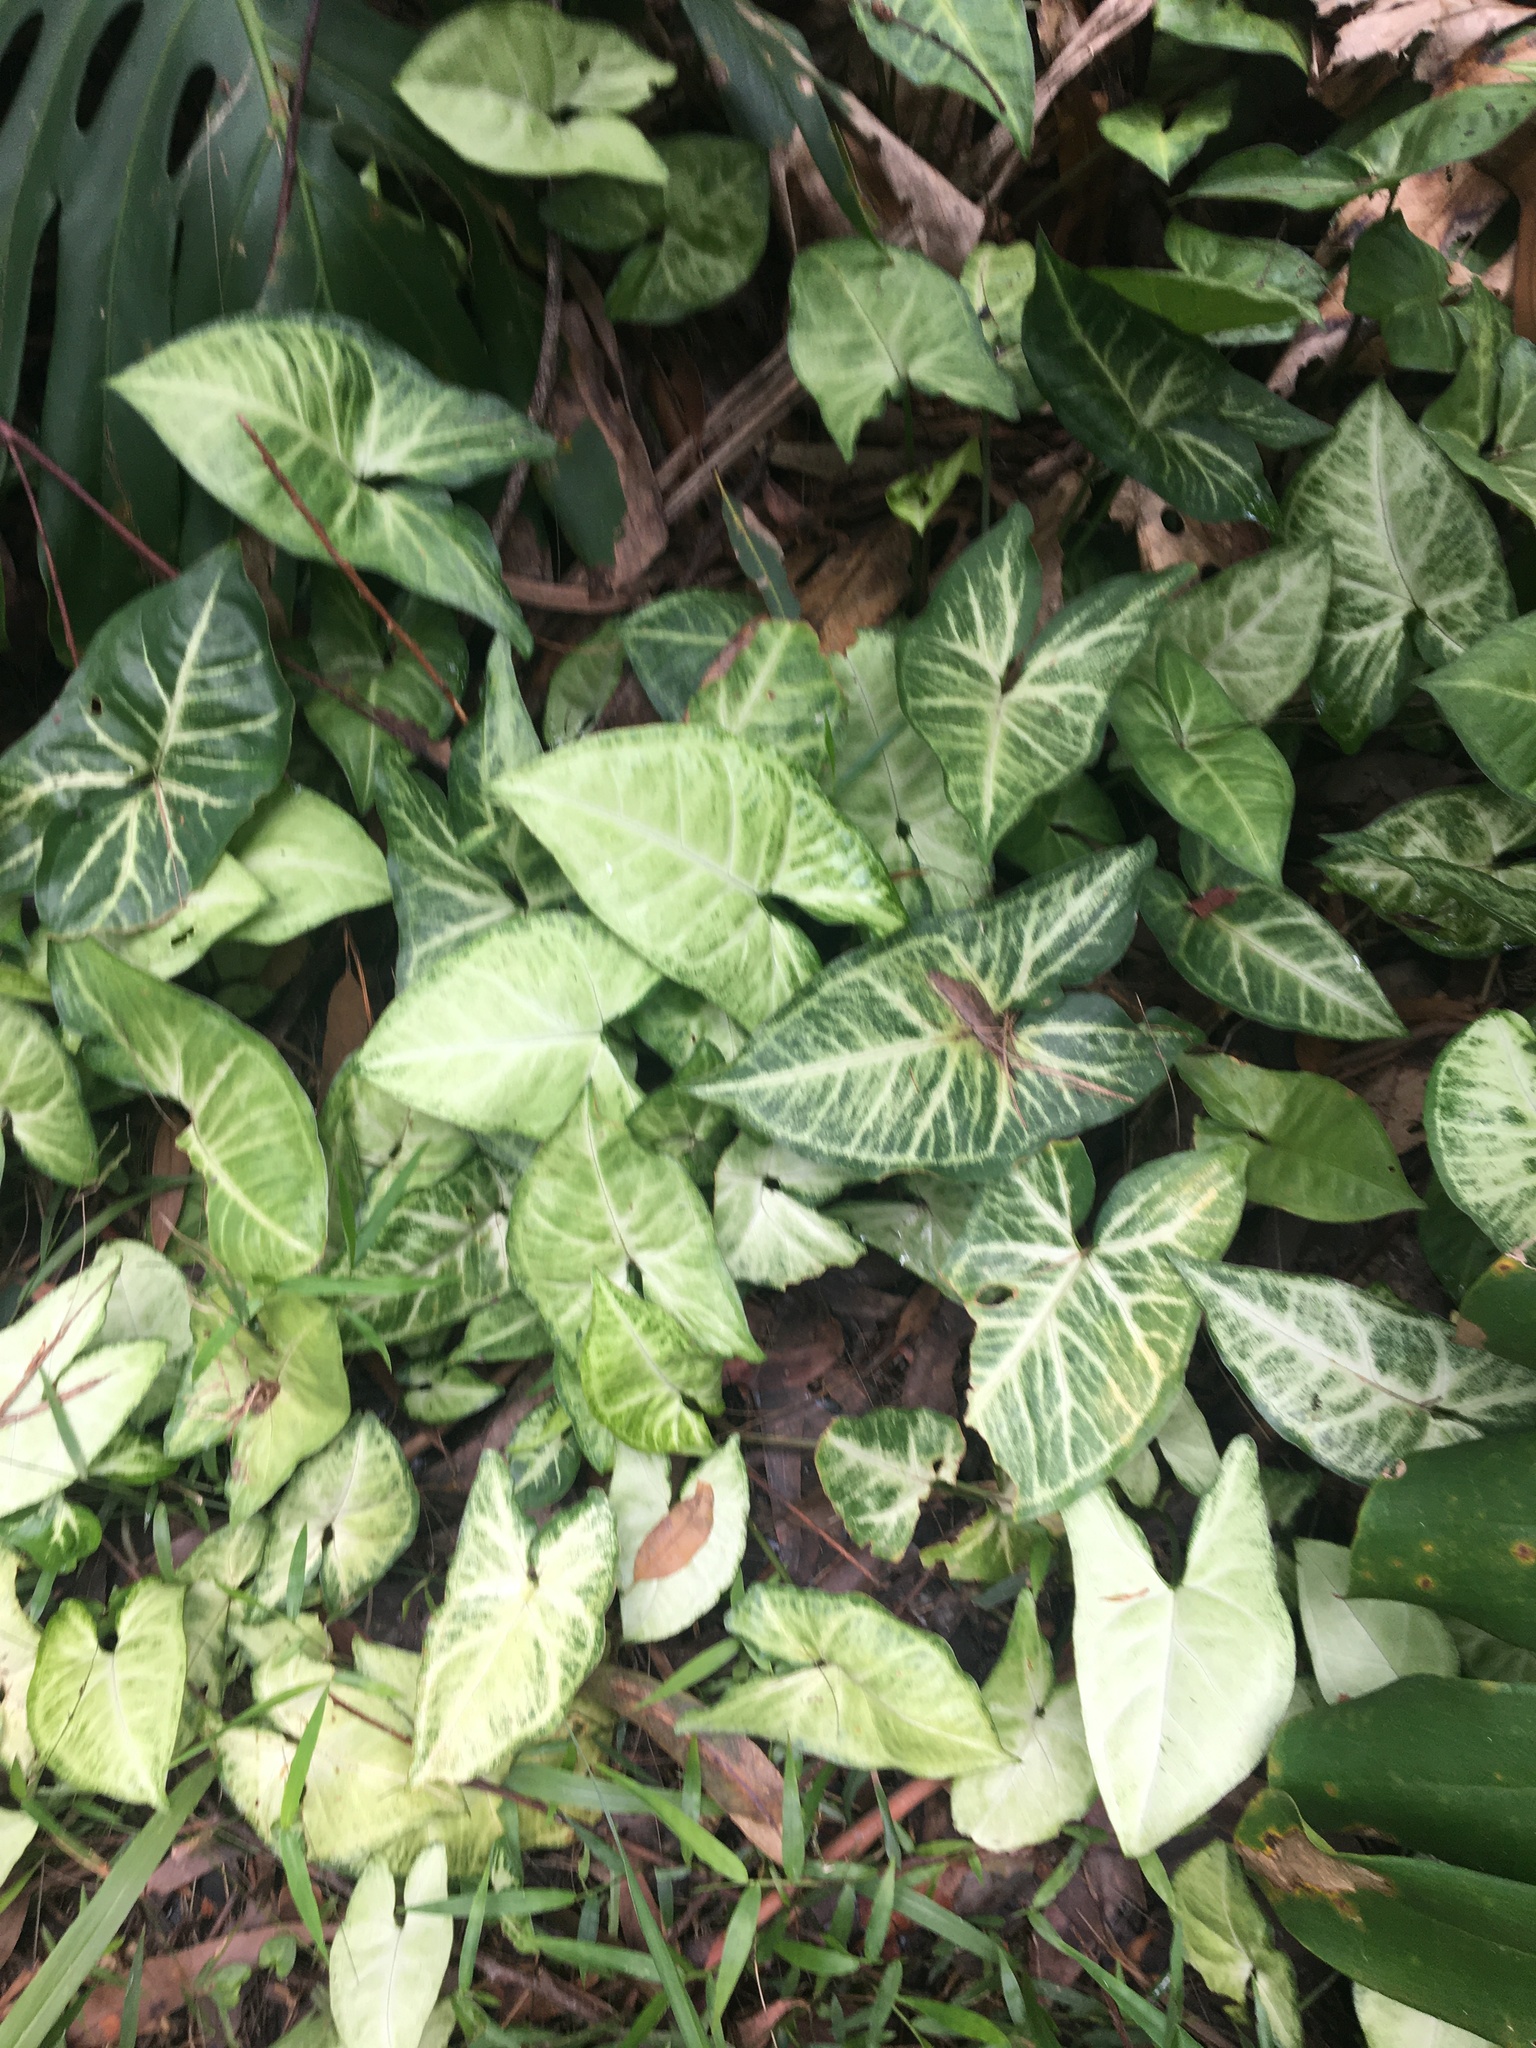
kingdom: Plantae
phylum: Tracheophyta
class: Liliopsida
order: Alismatales
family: Araceae
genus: Syngonium
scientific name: Syngonium podophyllum
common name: American evergreen
